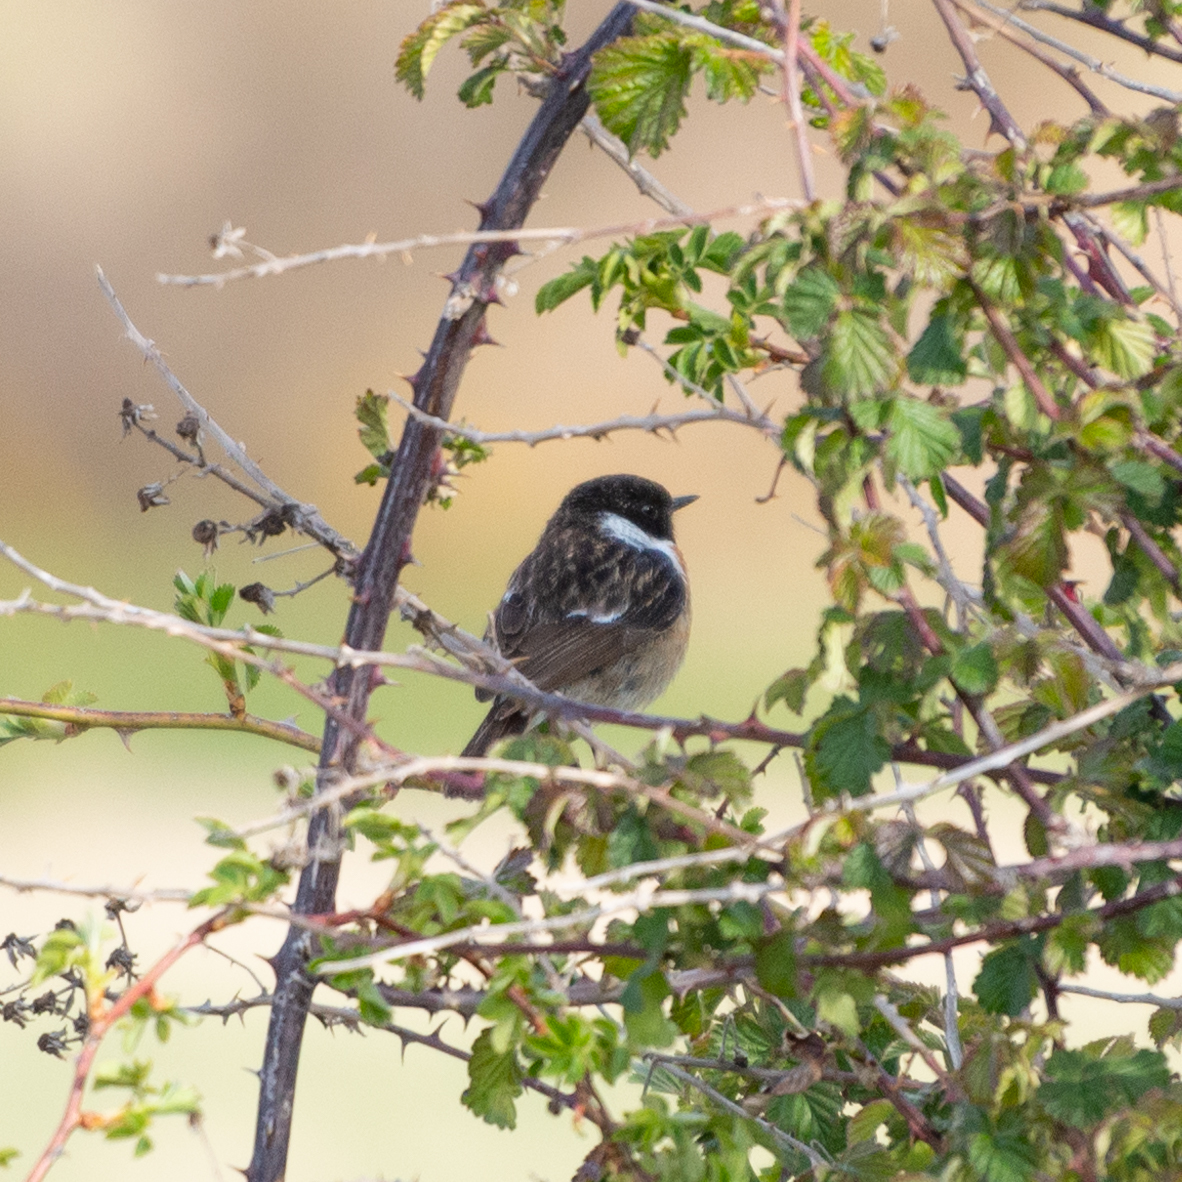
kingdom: Animalia
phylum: Chordata
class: Aves
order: Passeriformes
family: Muscicapidae
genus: Saxicola
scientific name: Saxicola rubicola
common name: European stonechat
